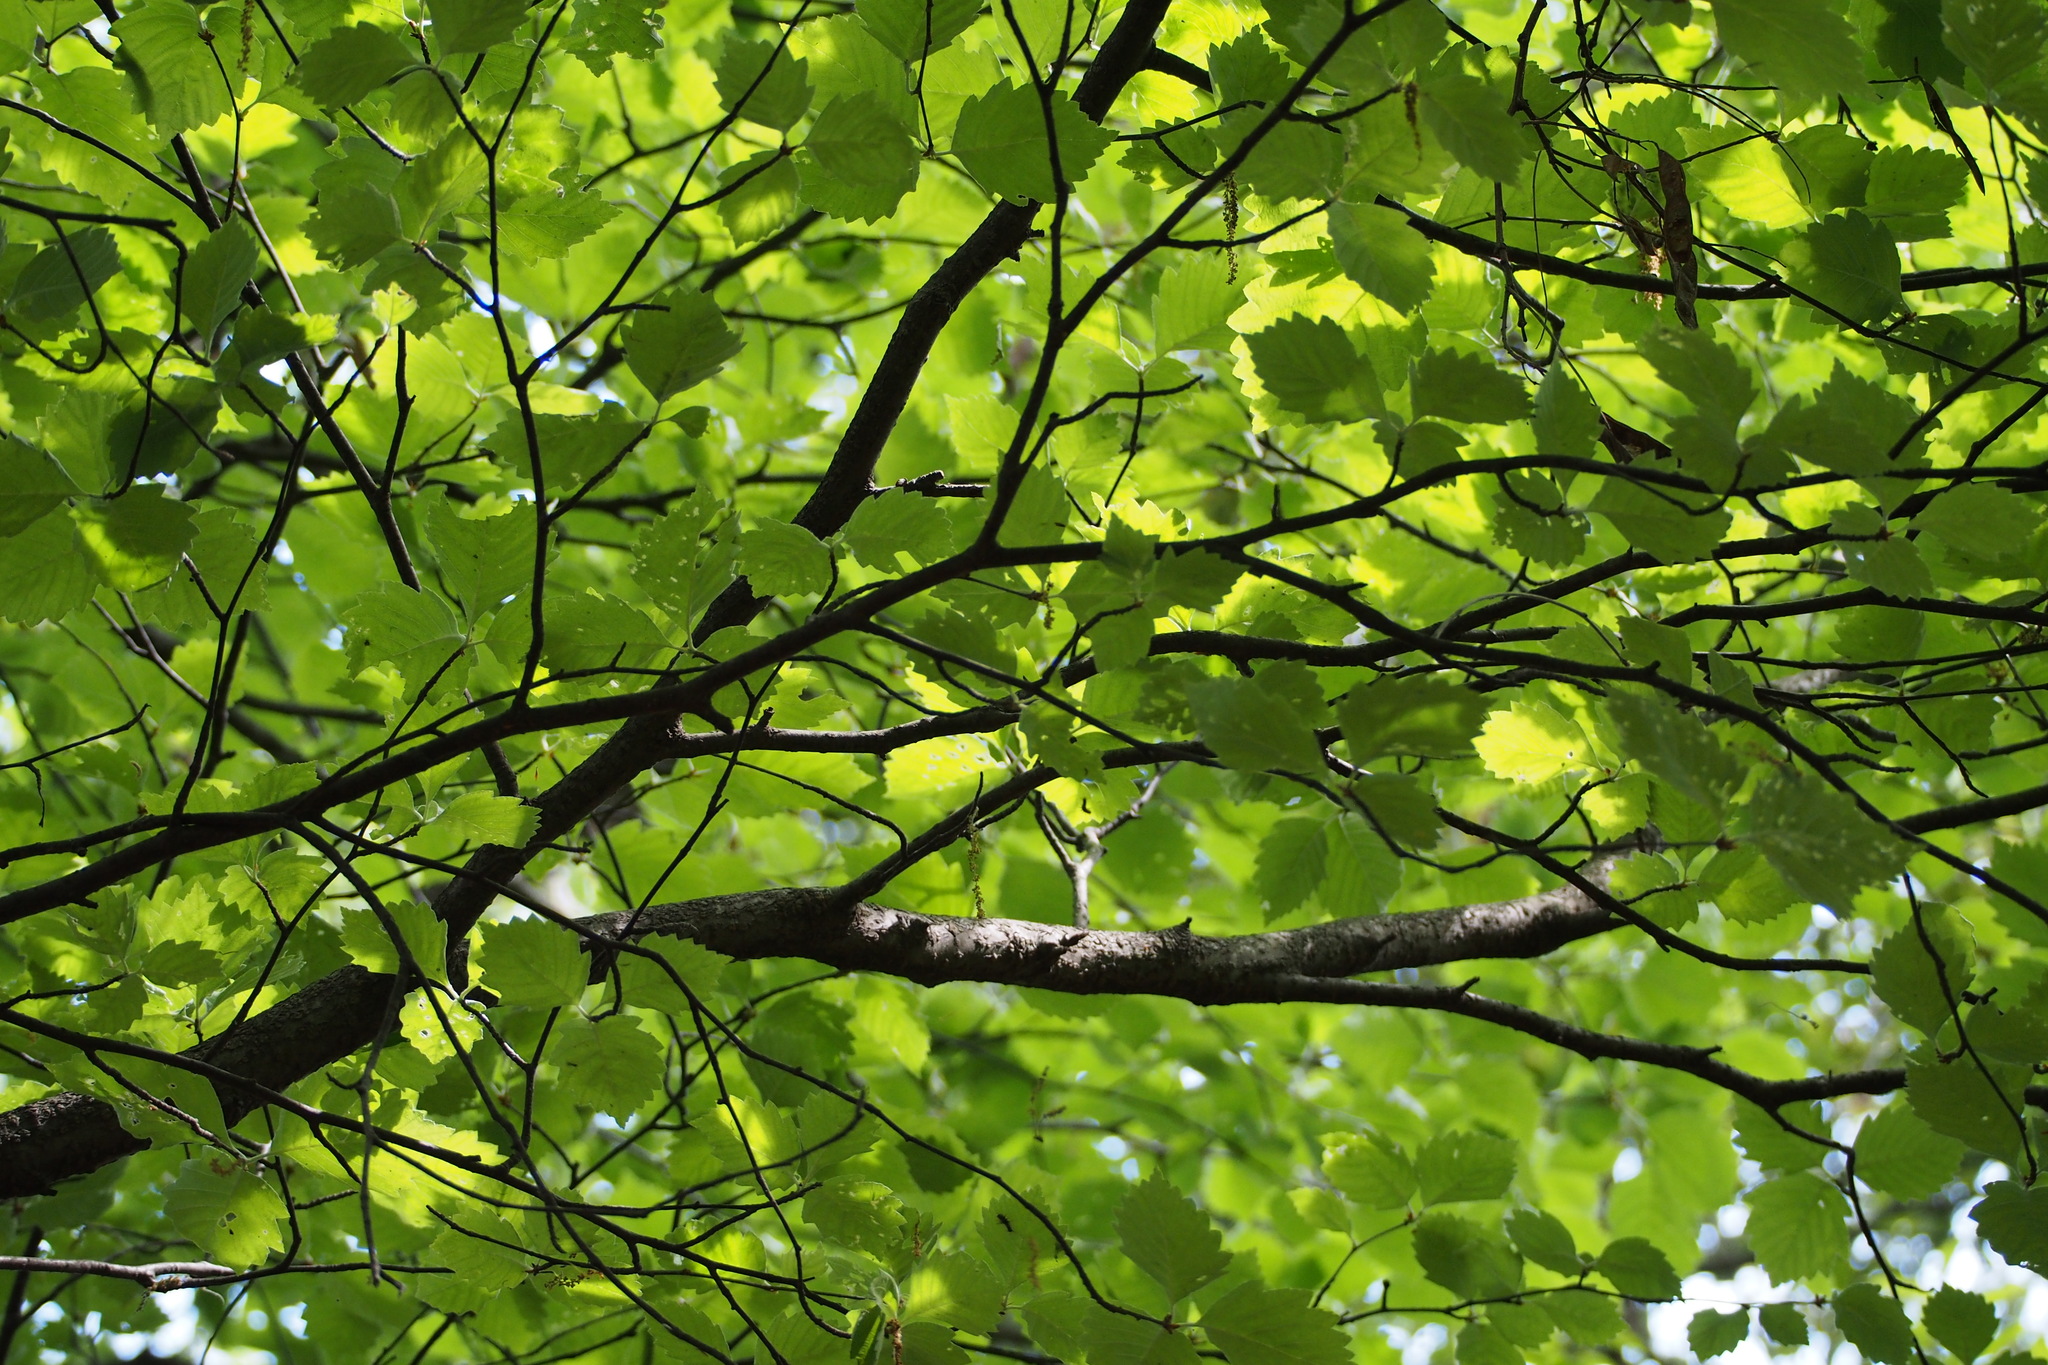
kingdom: Plantae
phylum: Tracheophyta
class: Magnoliopsida
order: Rosales
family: Rosaceae
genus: Sorbus
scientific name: Sorbus japonica
